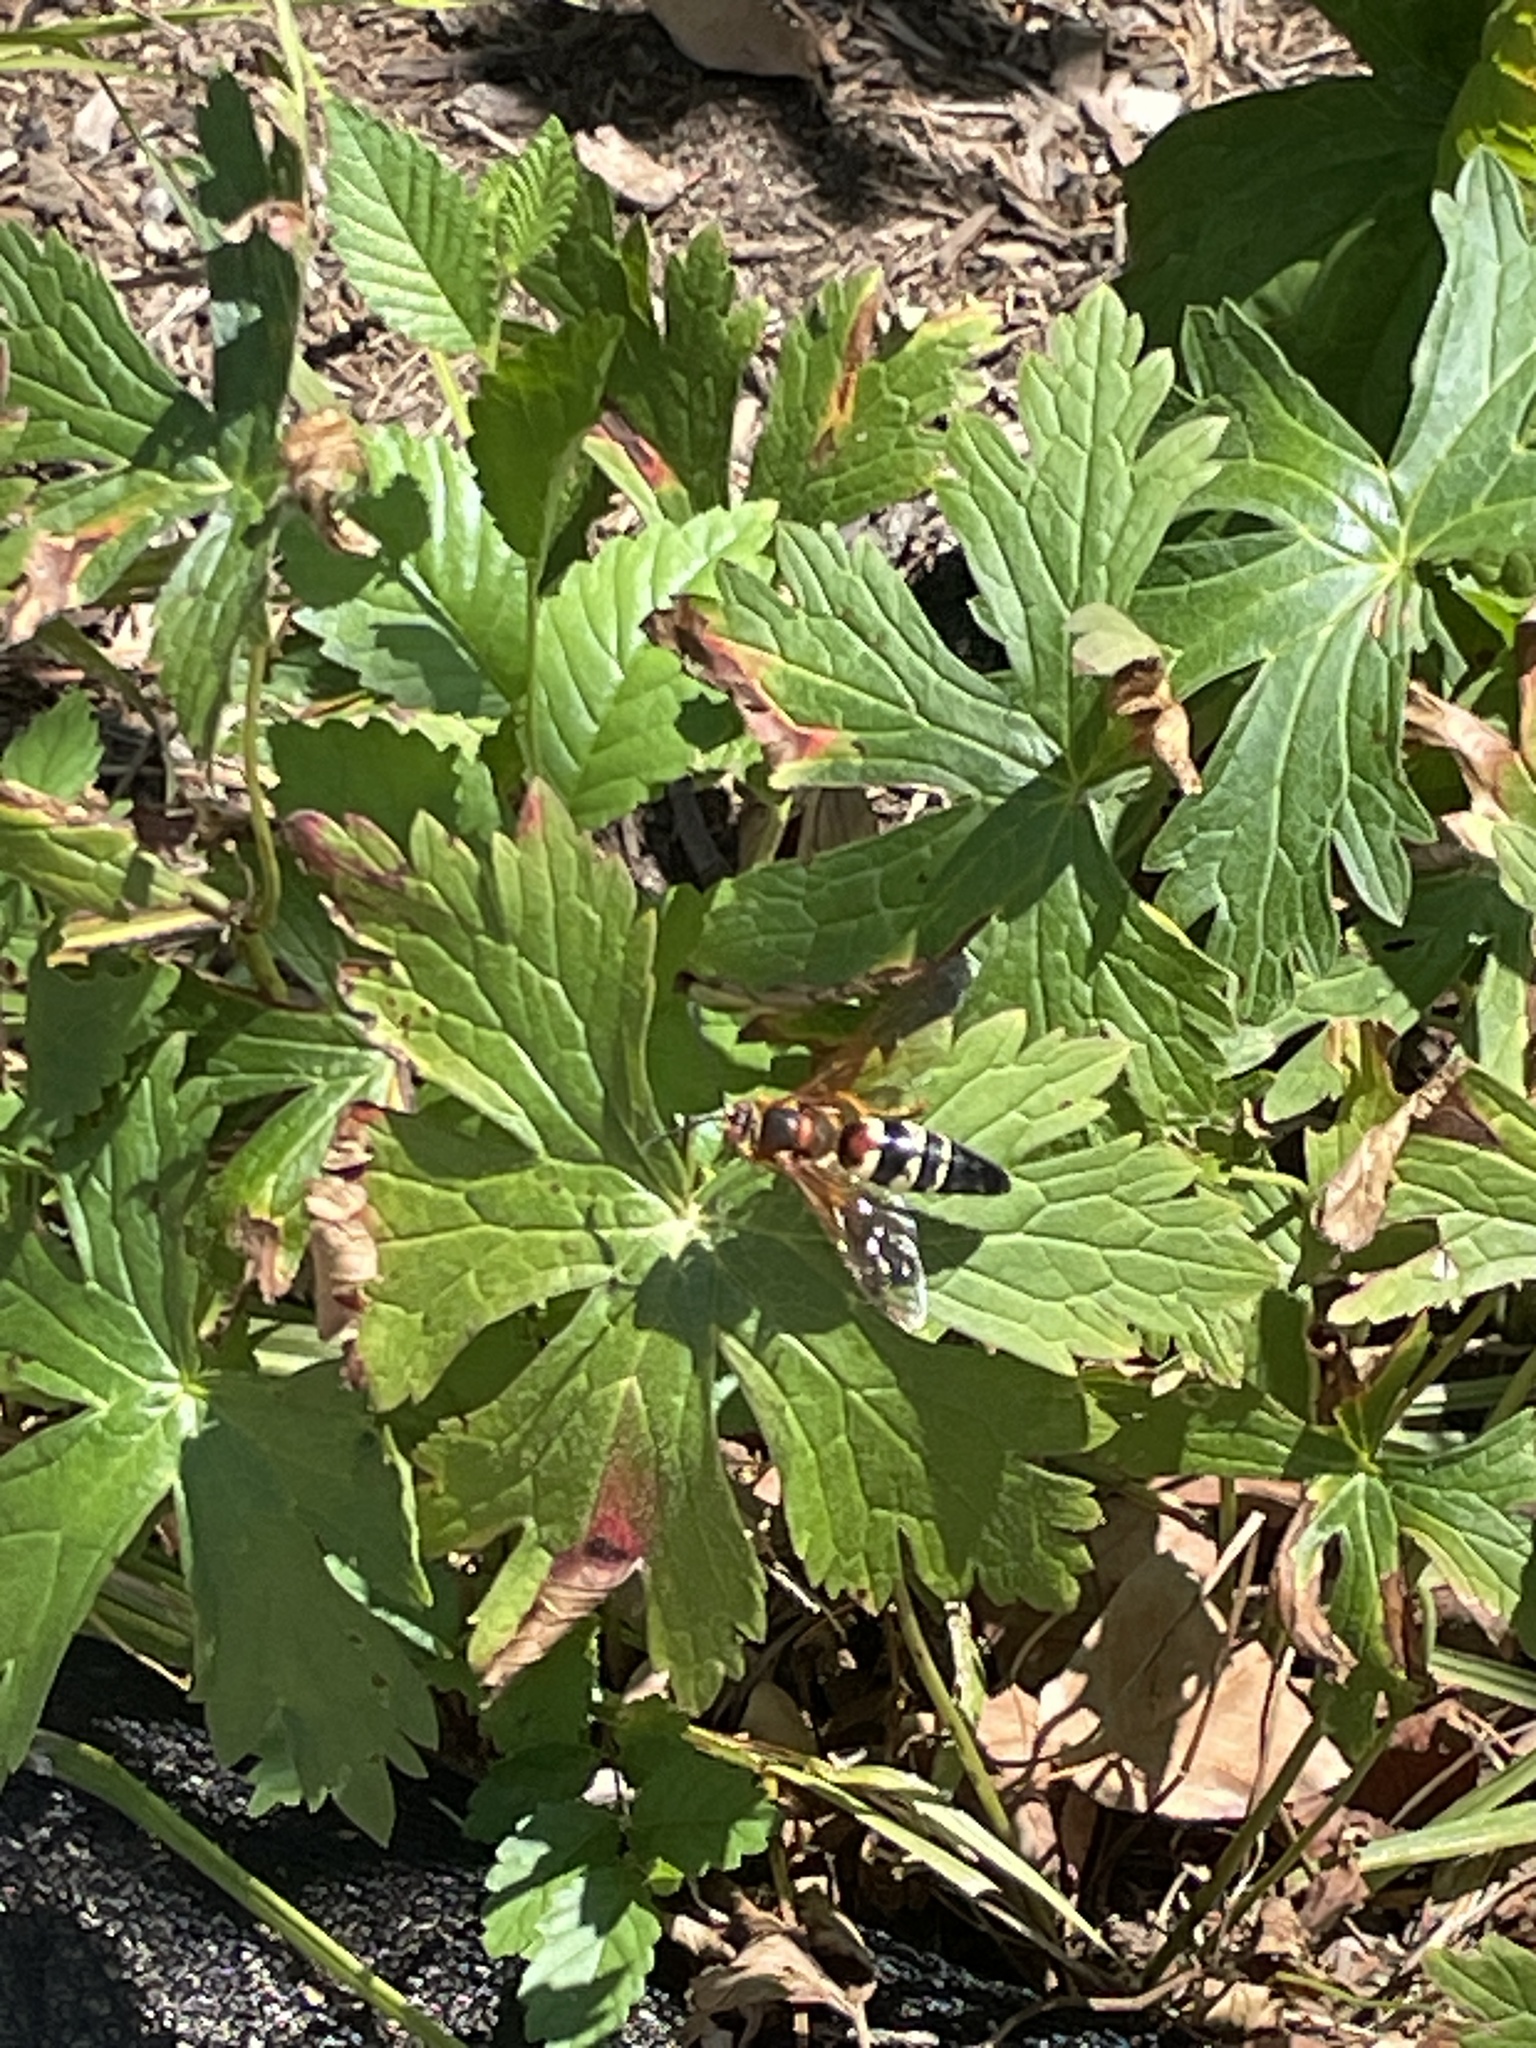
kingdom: Animalia
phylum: Arthropoda
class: Insecta
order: Hymenoptera
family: Crabronidae
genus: Sphecius
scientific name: Sphecius speciosus
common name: Cicada killer
